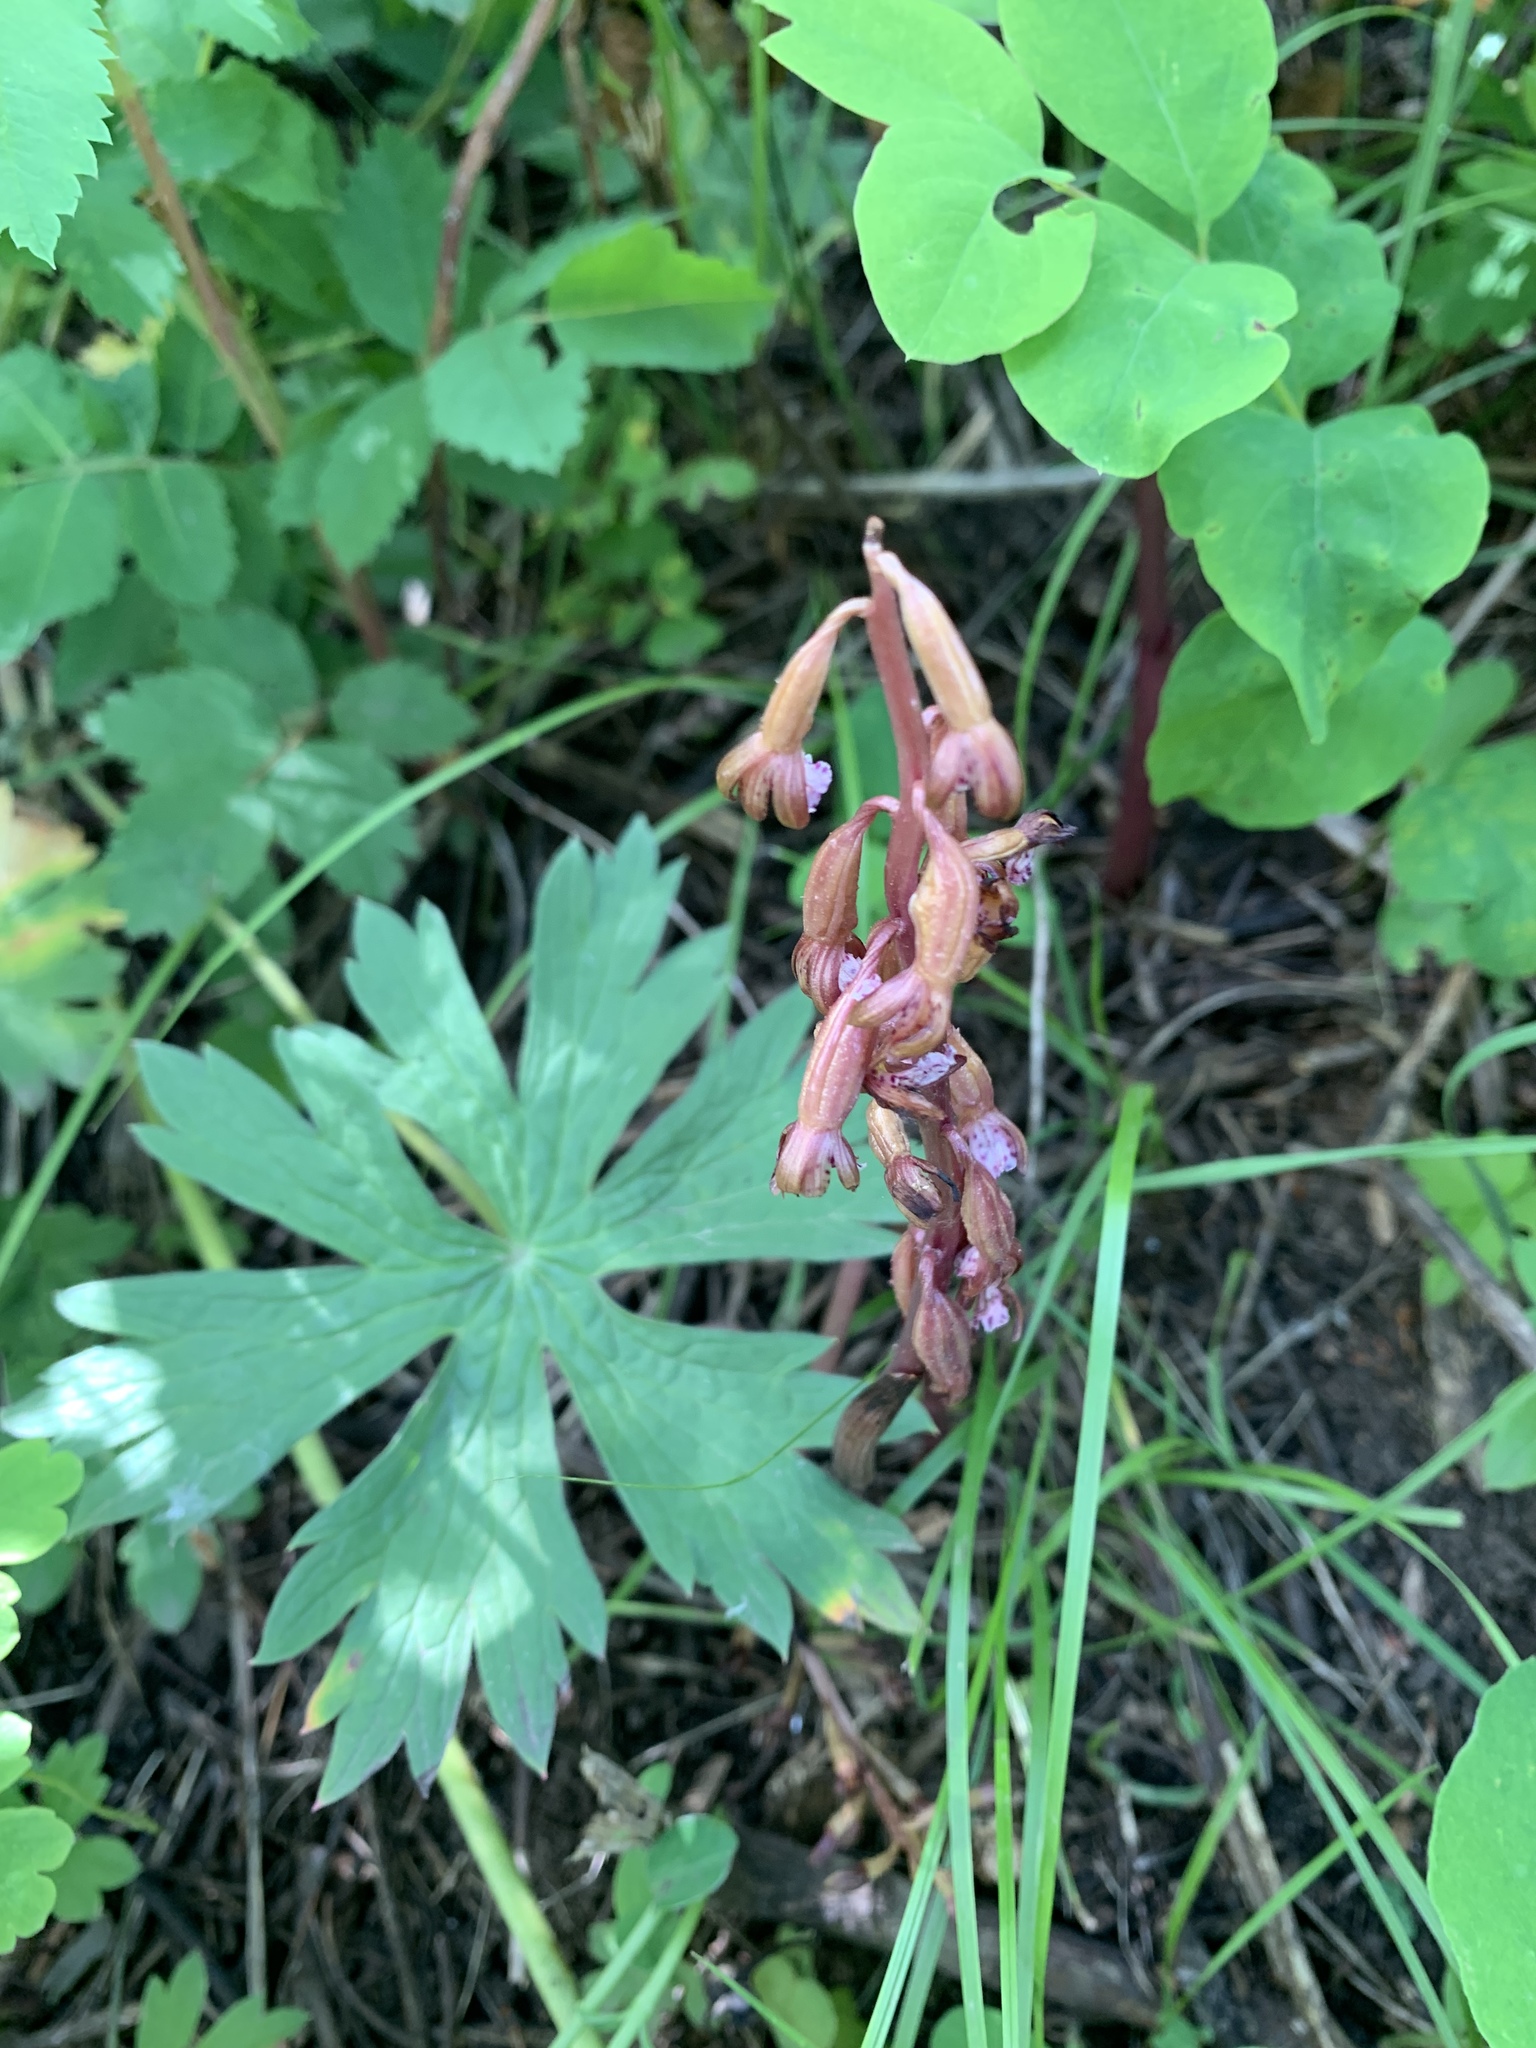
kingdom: Plantae
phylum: Tracheophyta
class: Liliopsida
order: Asparagales
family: Orchidaceae
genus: Corallorhiza
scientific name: Corallorhiza maculata
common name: Spotted coralroot
